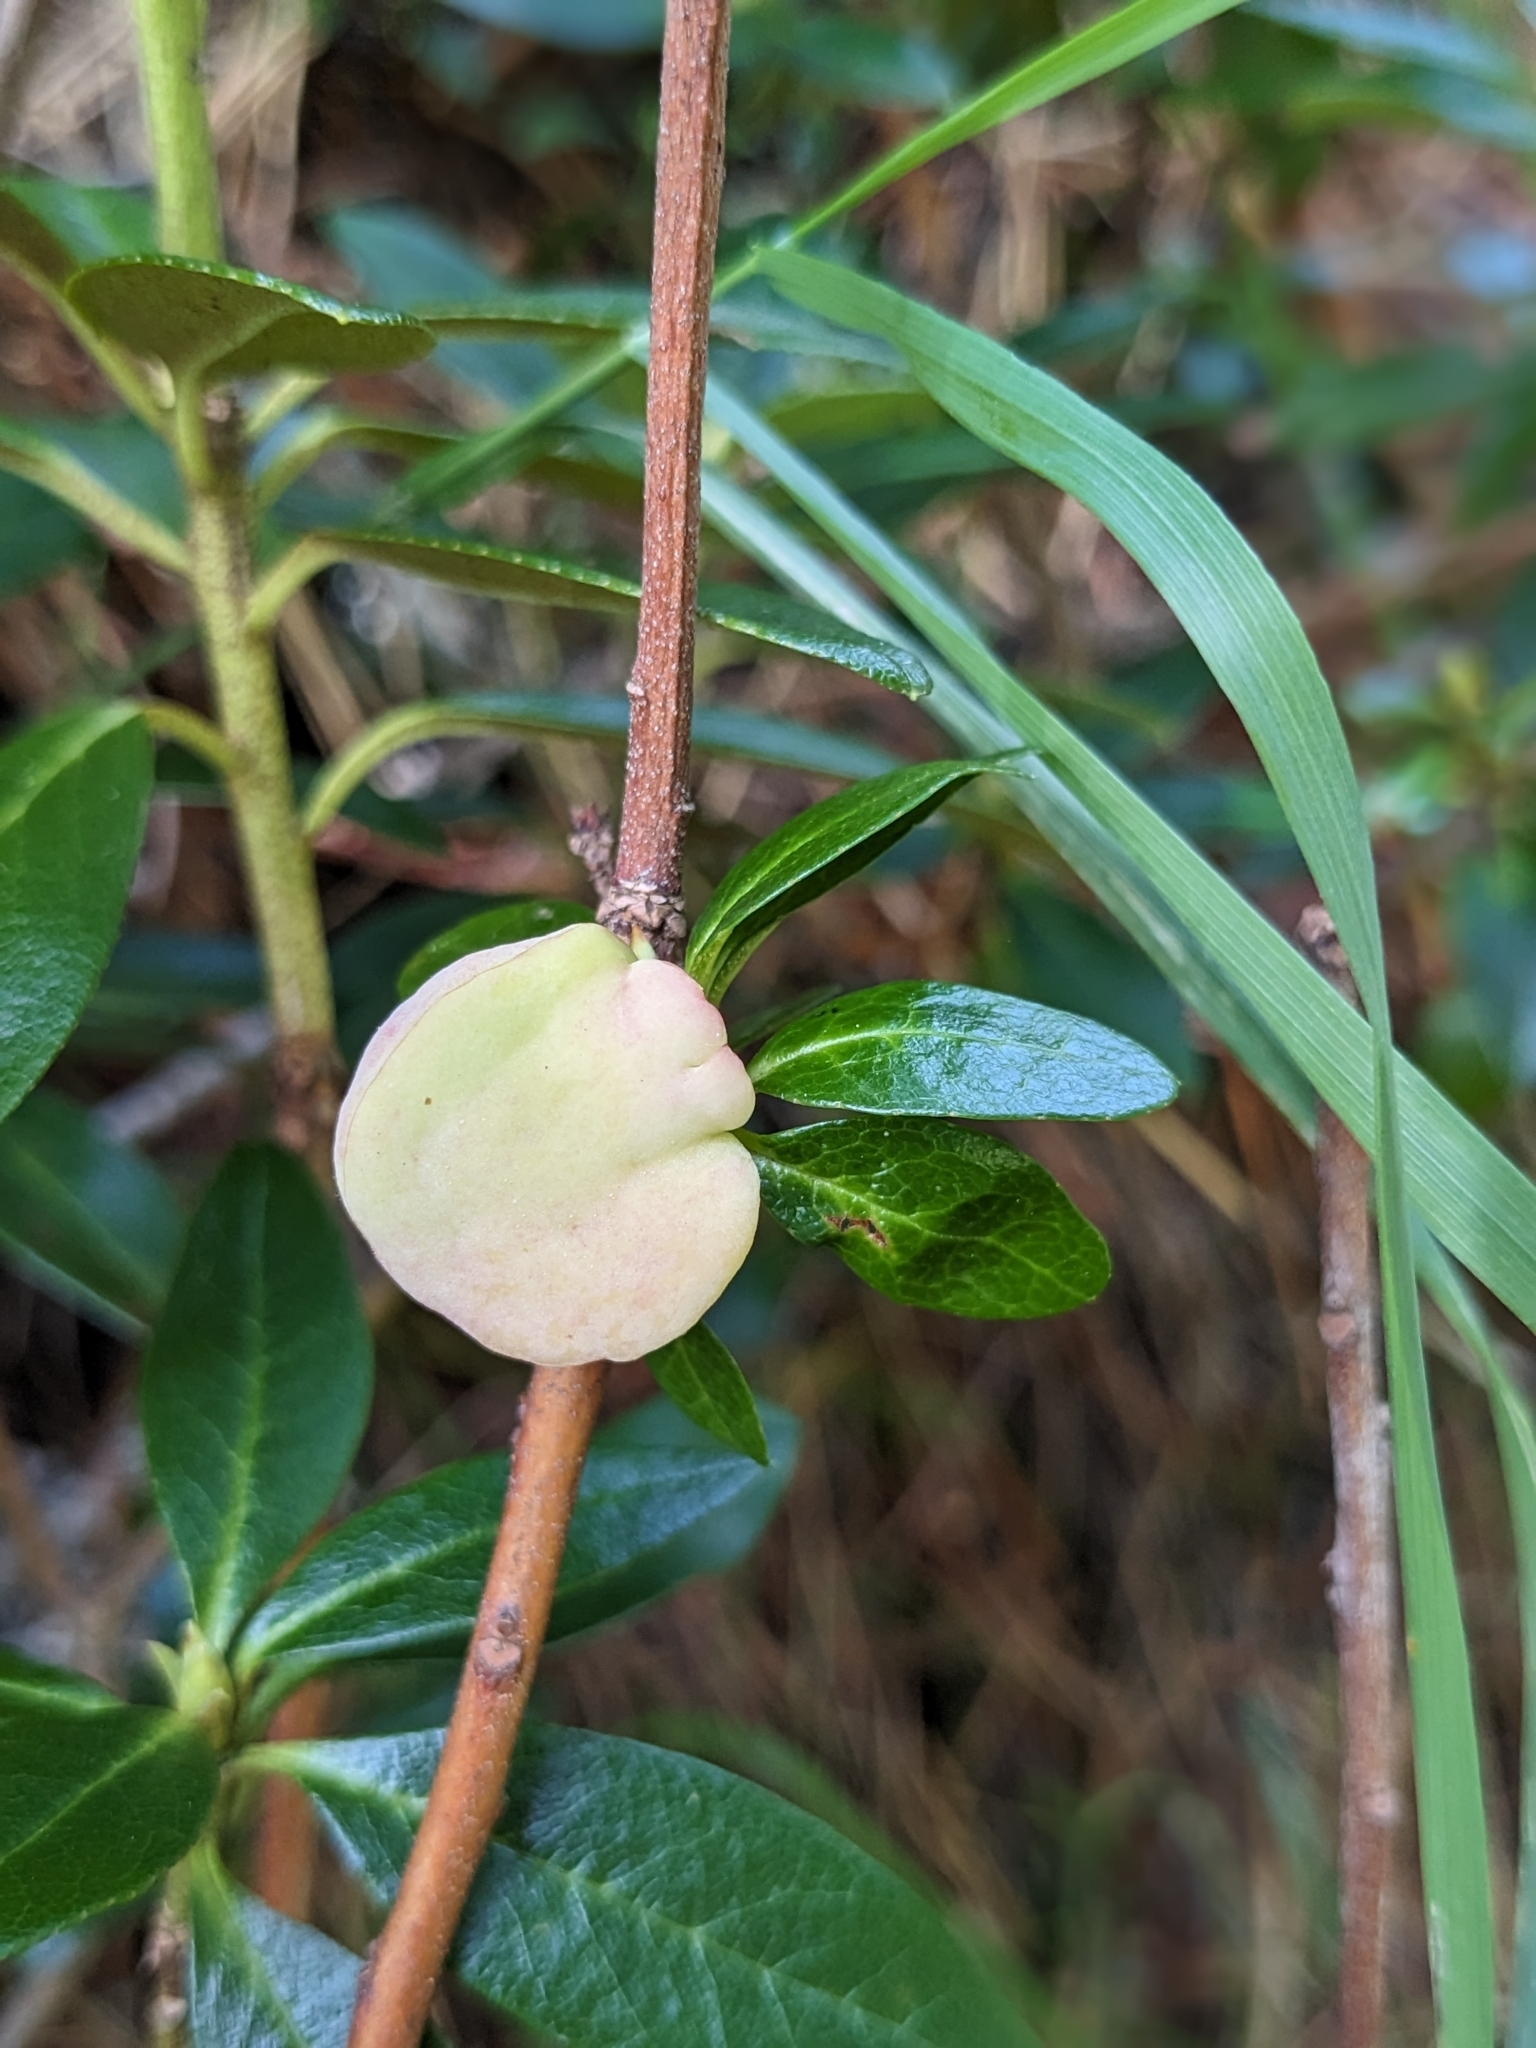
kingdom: Fungi
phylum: Basidiomycota
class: Exobasidiomycetes
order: Exobasidiales
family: Exobasidiaceae
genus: Exobasidium
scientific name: Exobasidium rhododendri
